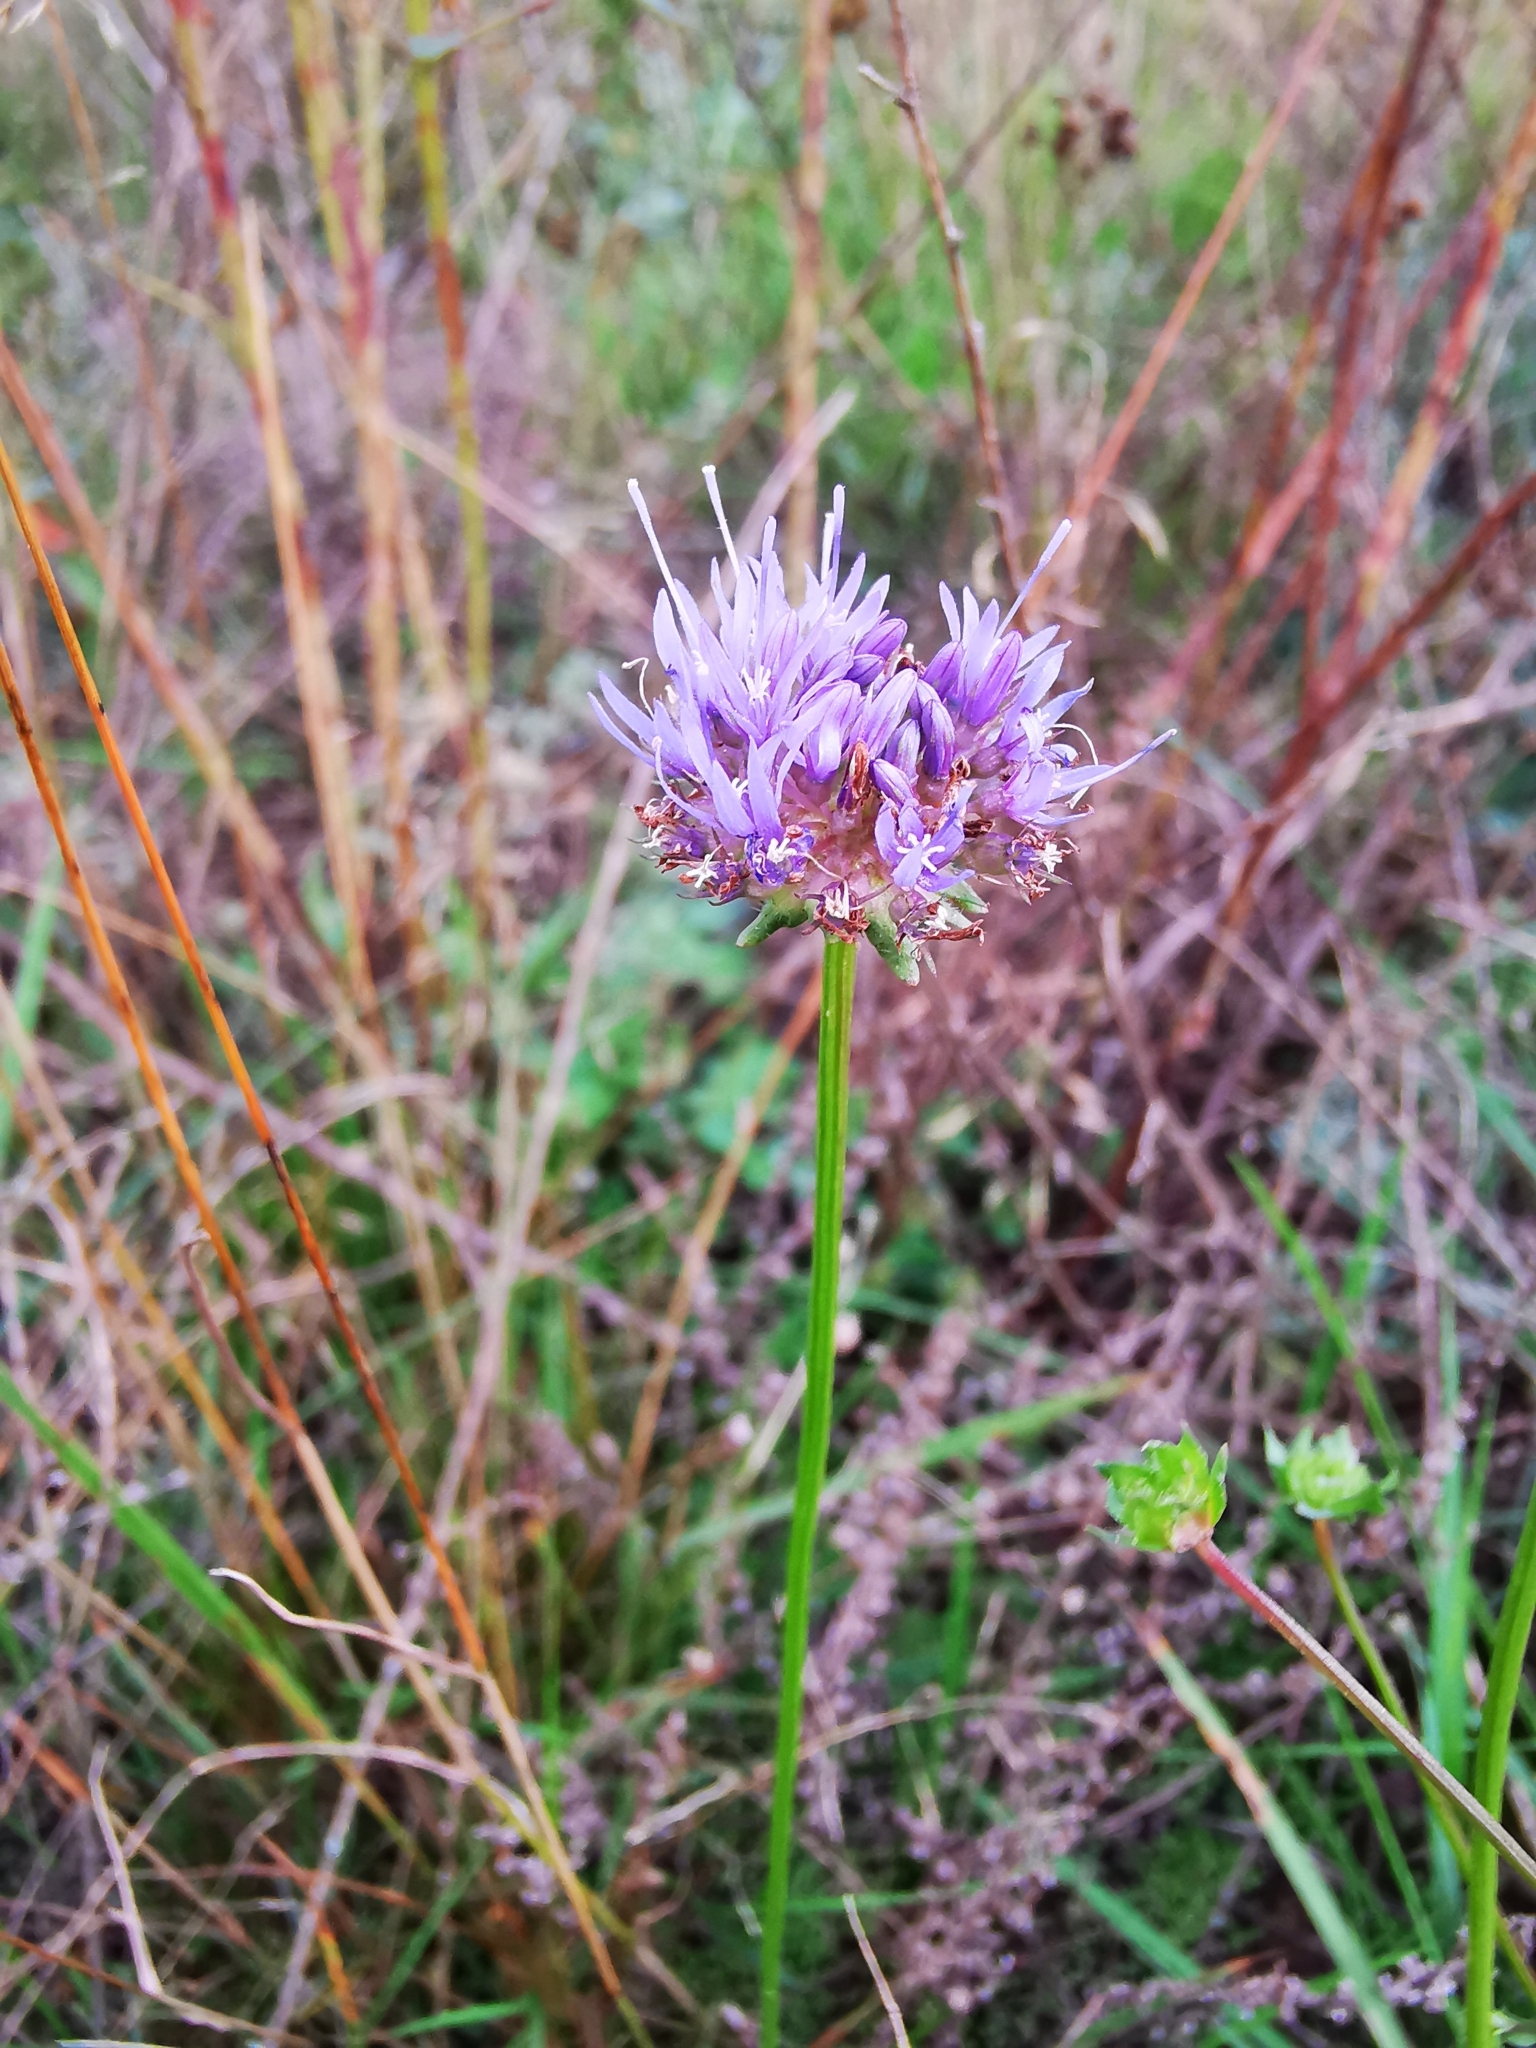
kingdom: Plantae
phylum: Tracheophyta
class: Magnoliopsida
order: Asterales
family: Campanulaceae
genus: Jasione
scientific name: Jasione montana
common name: Sheep's-bit
